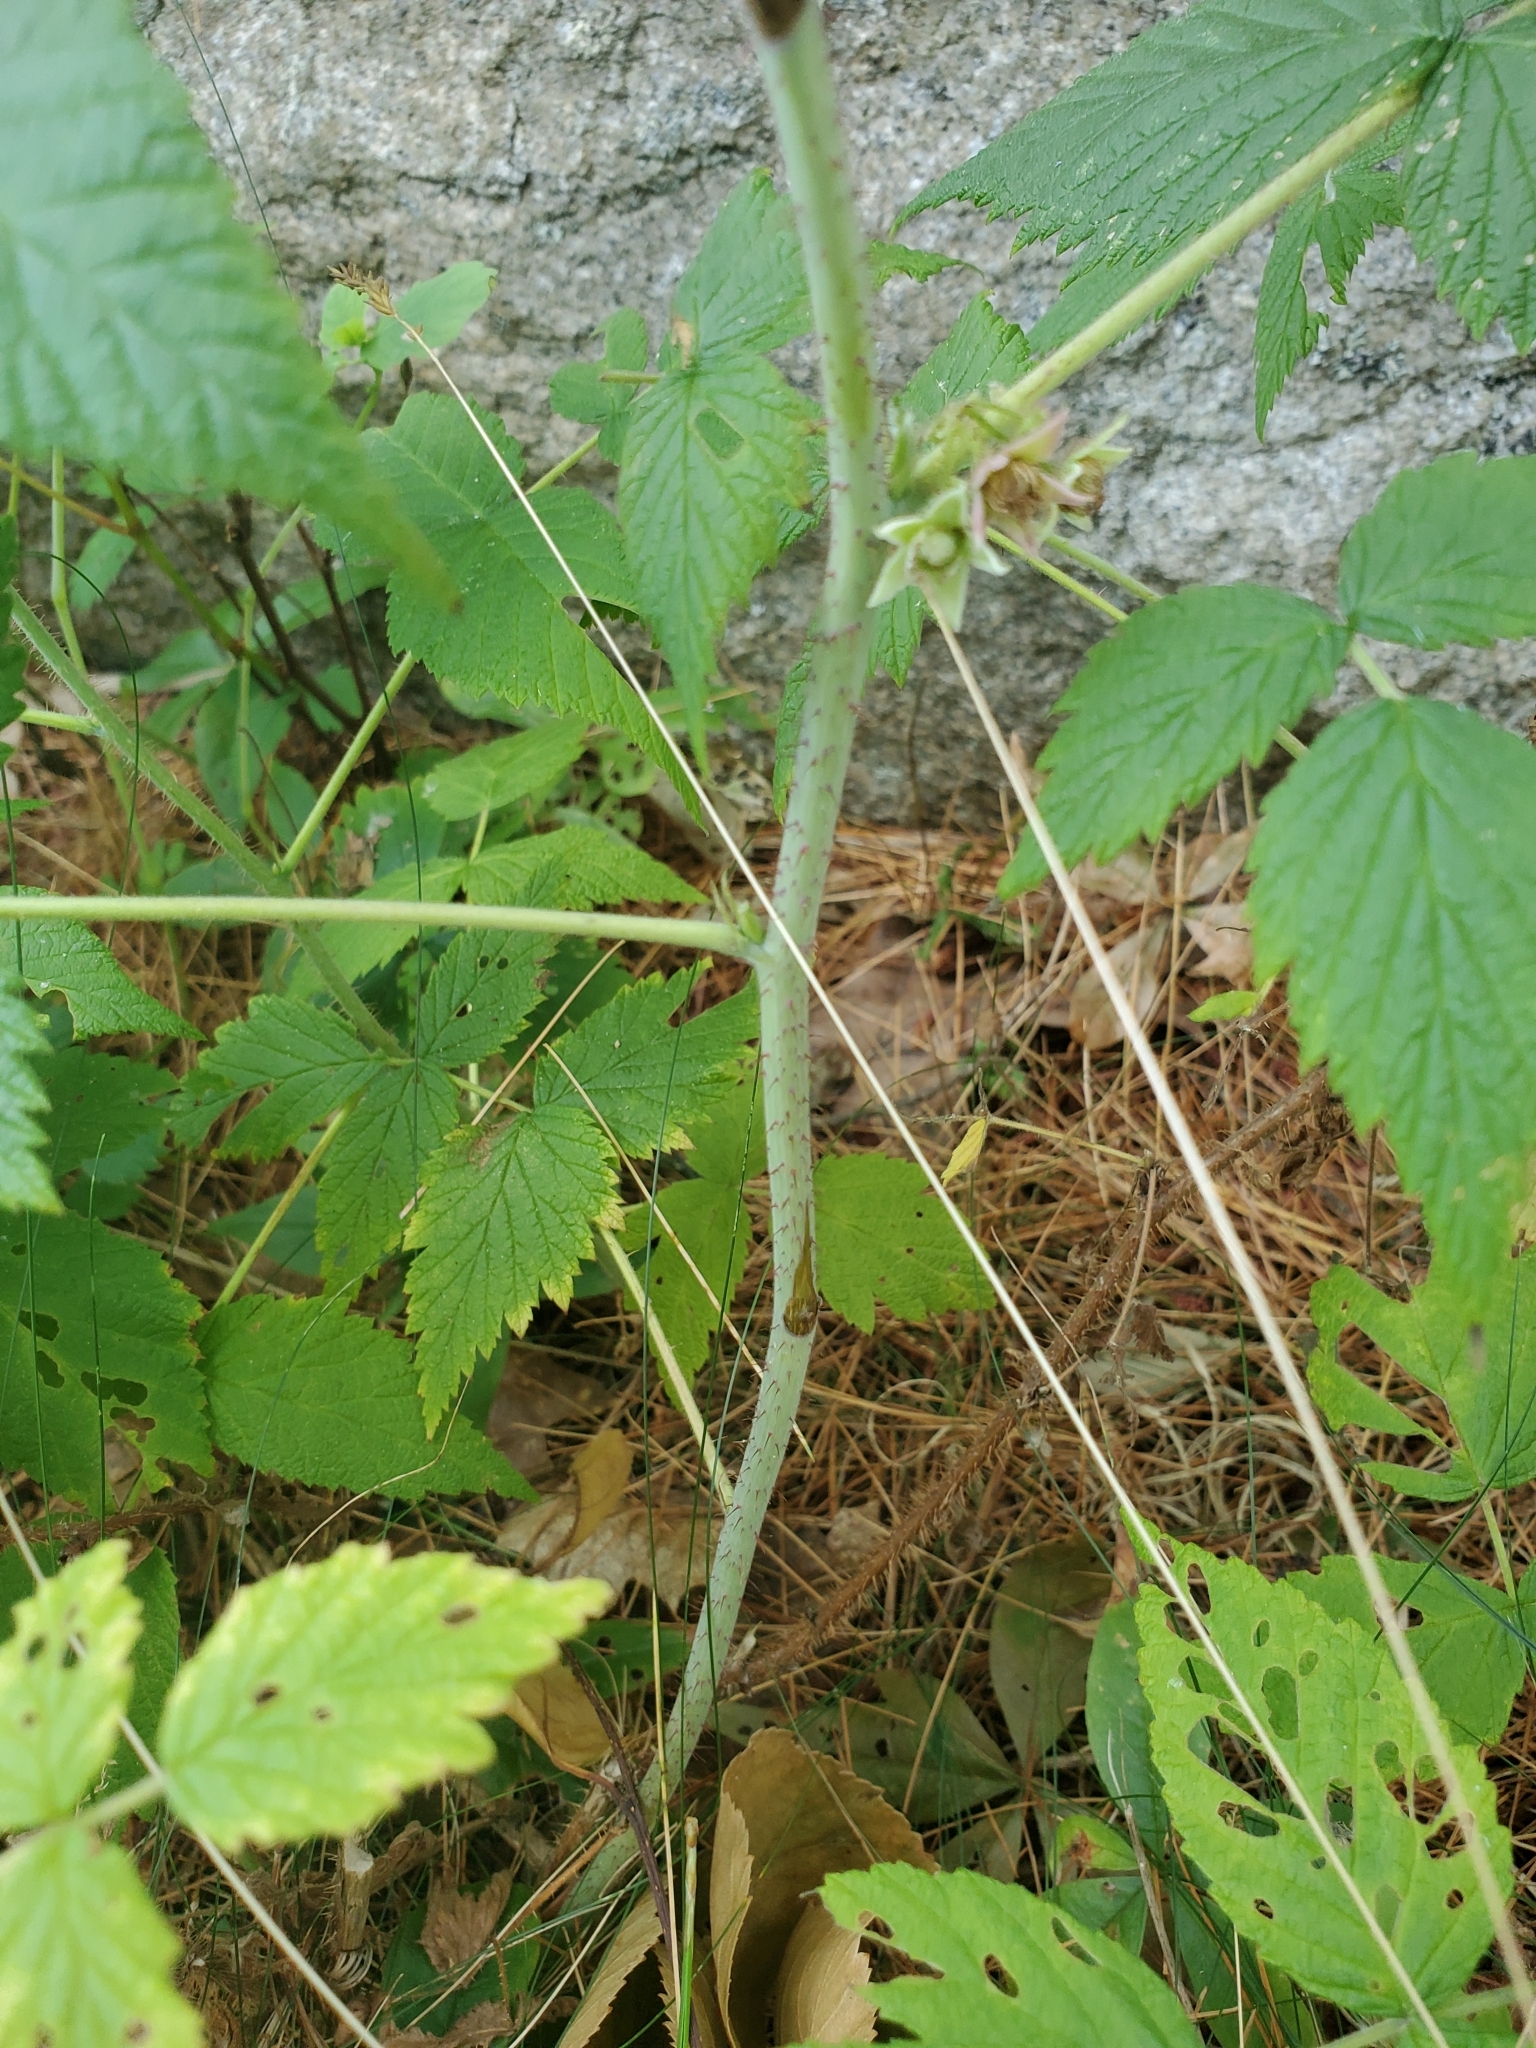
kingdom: Plantae
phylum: Tracheophyta
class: Magnoliopsida
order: Rosales
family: Rosaceae
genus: Rubus
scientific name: Rubus idaeus
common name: Raspberry
